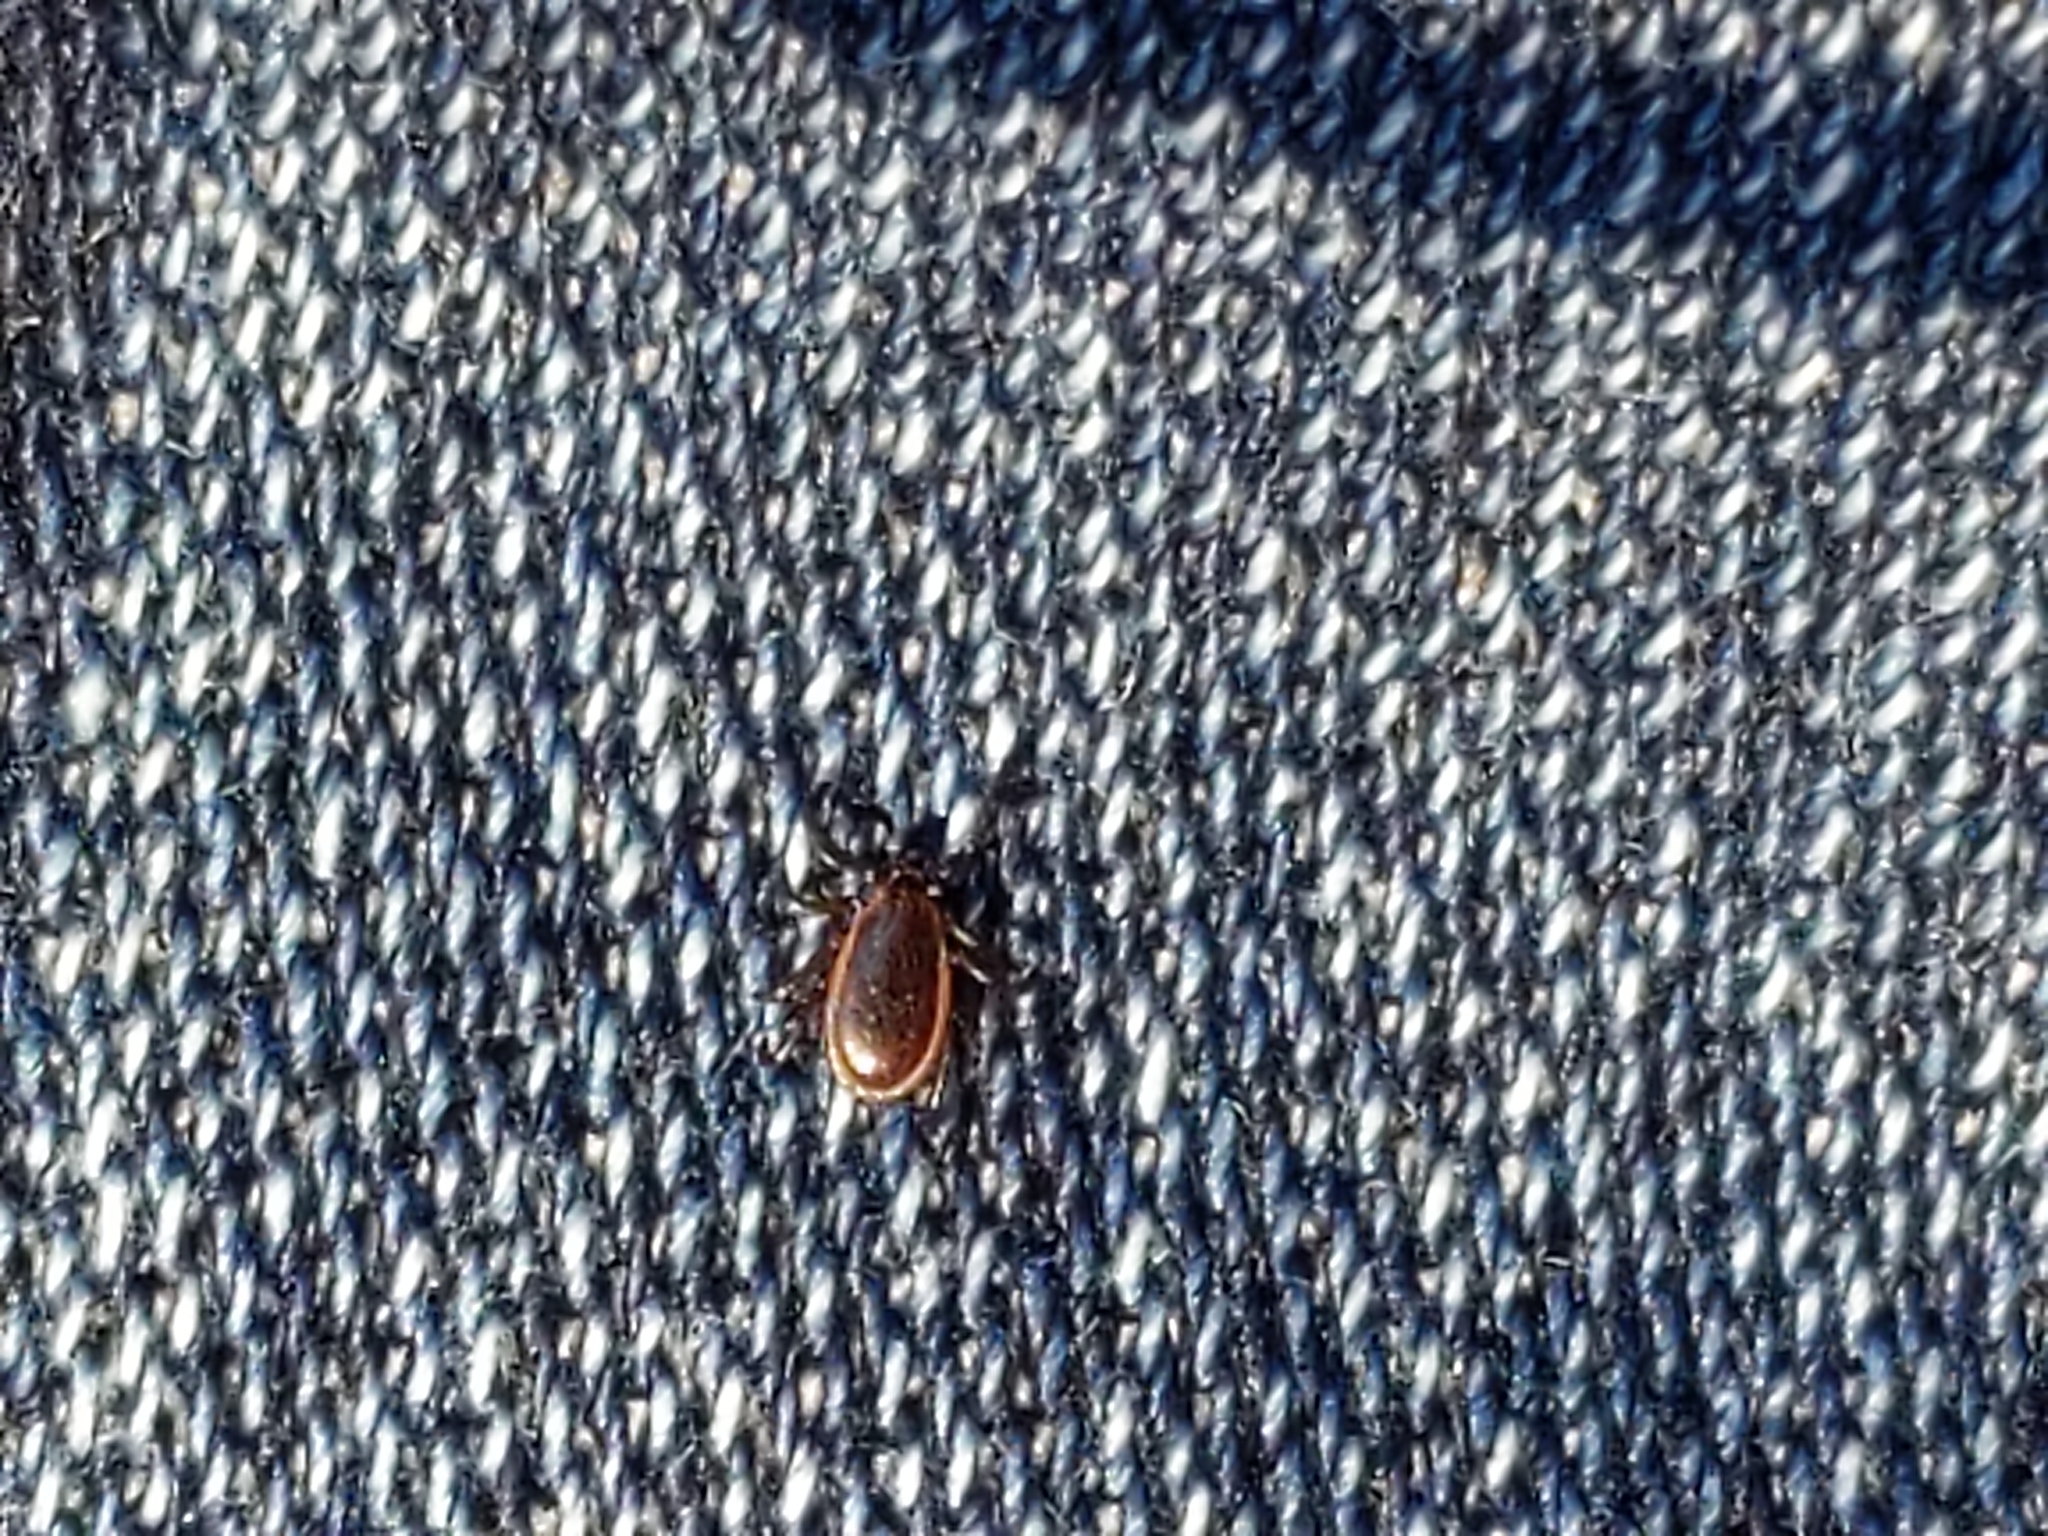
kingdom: Animalia
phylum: Arthropoda
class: Arachnida
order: Ixodida
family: Ixodidae
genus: Ixodes
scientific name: Ixodes scapularis
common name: Black legged tick
